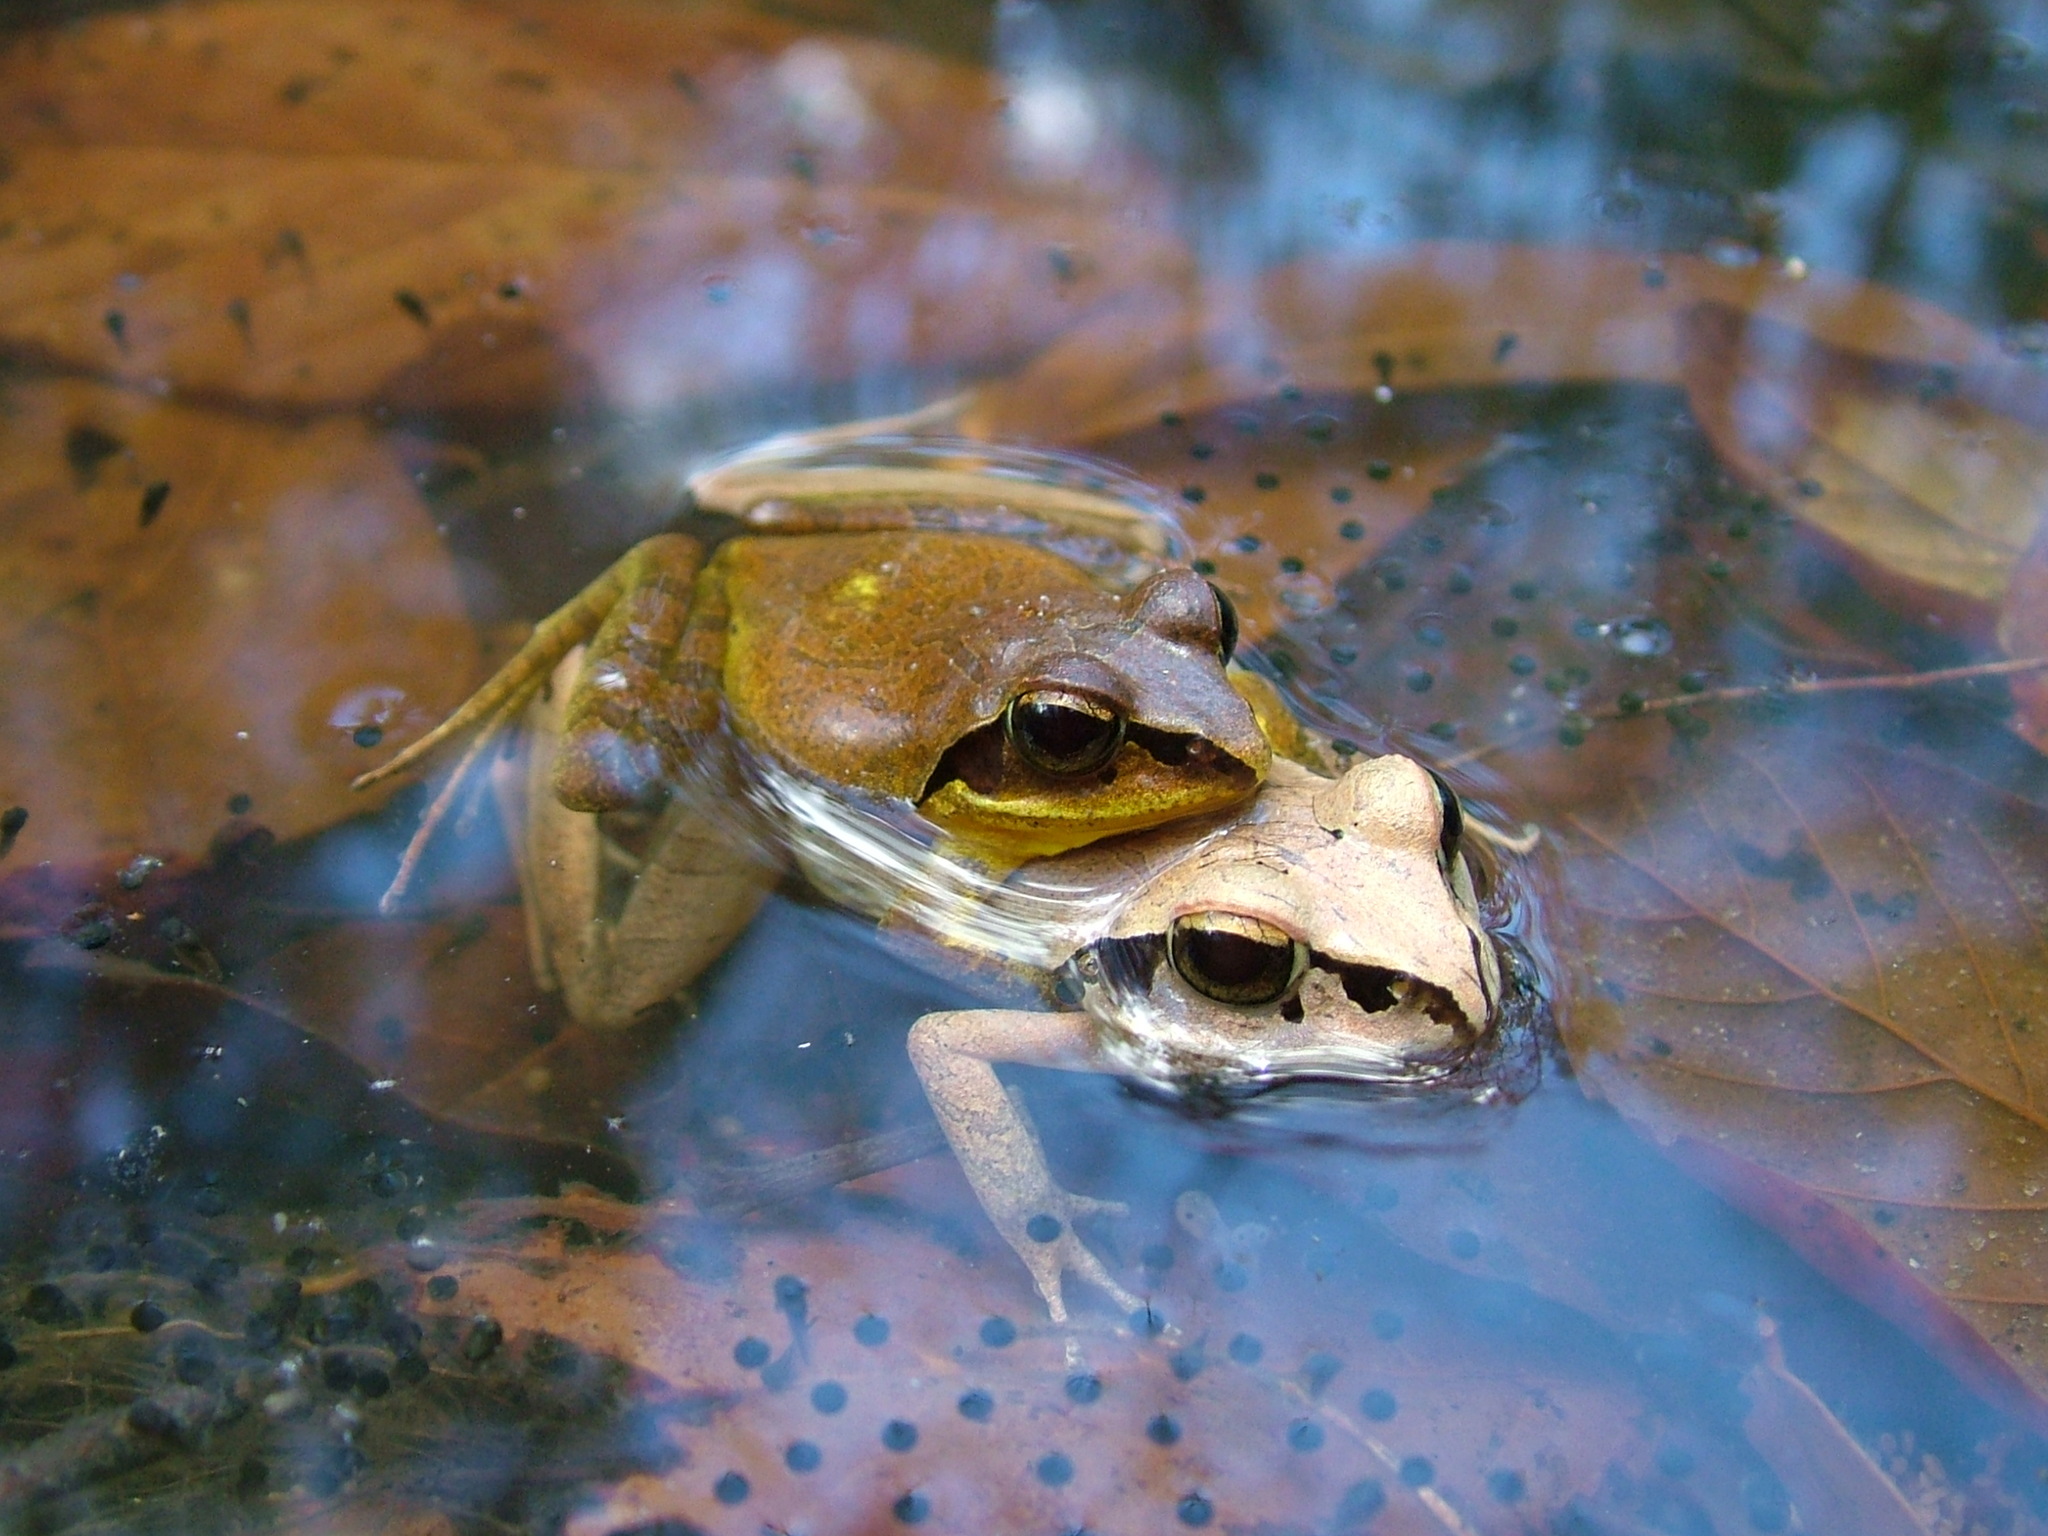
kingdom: Animalia
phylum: Chordata
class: Amphibia
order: Anura
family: Mantellidae
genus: Aglyptodactylus
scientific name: Aglyptodactylus laticeps
